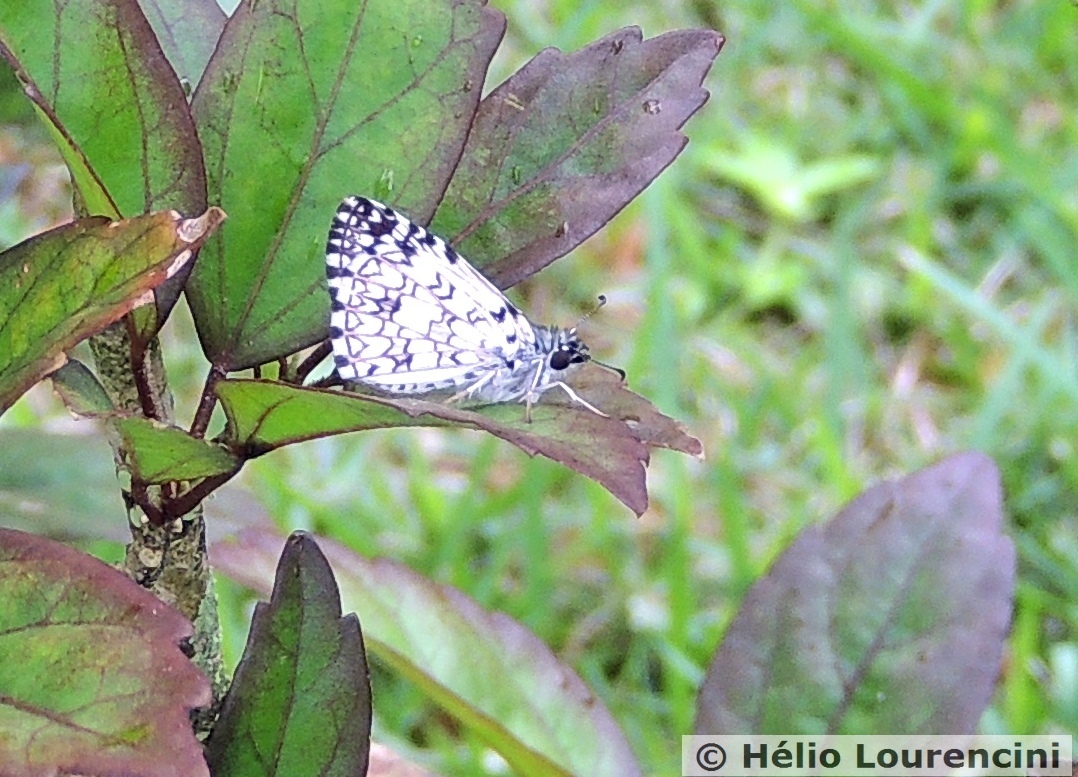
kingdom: Animalia
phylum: Arthropoda
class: Insecta
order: Lepidoptera
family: Hesperiidae
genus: Pyrgus
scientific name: Pyrgus oileus
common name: Tropical checkered-skipper
